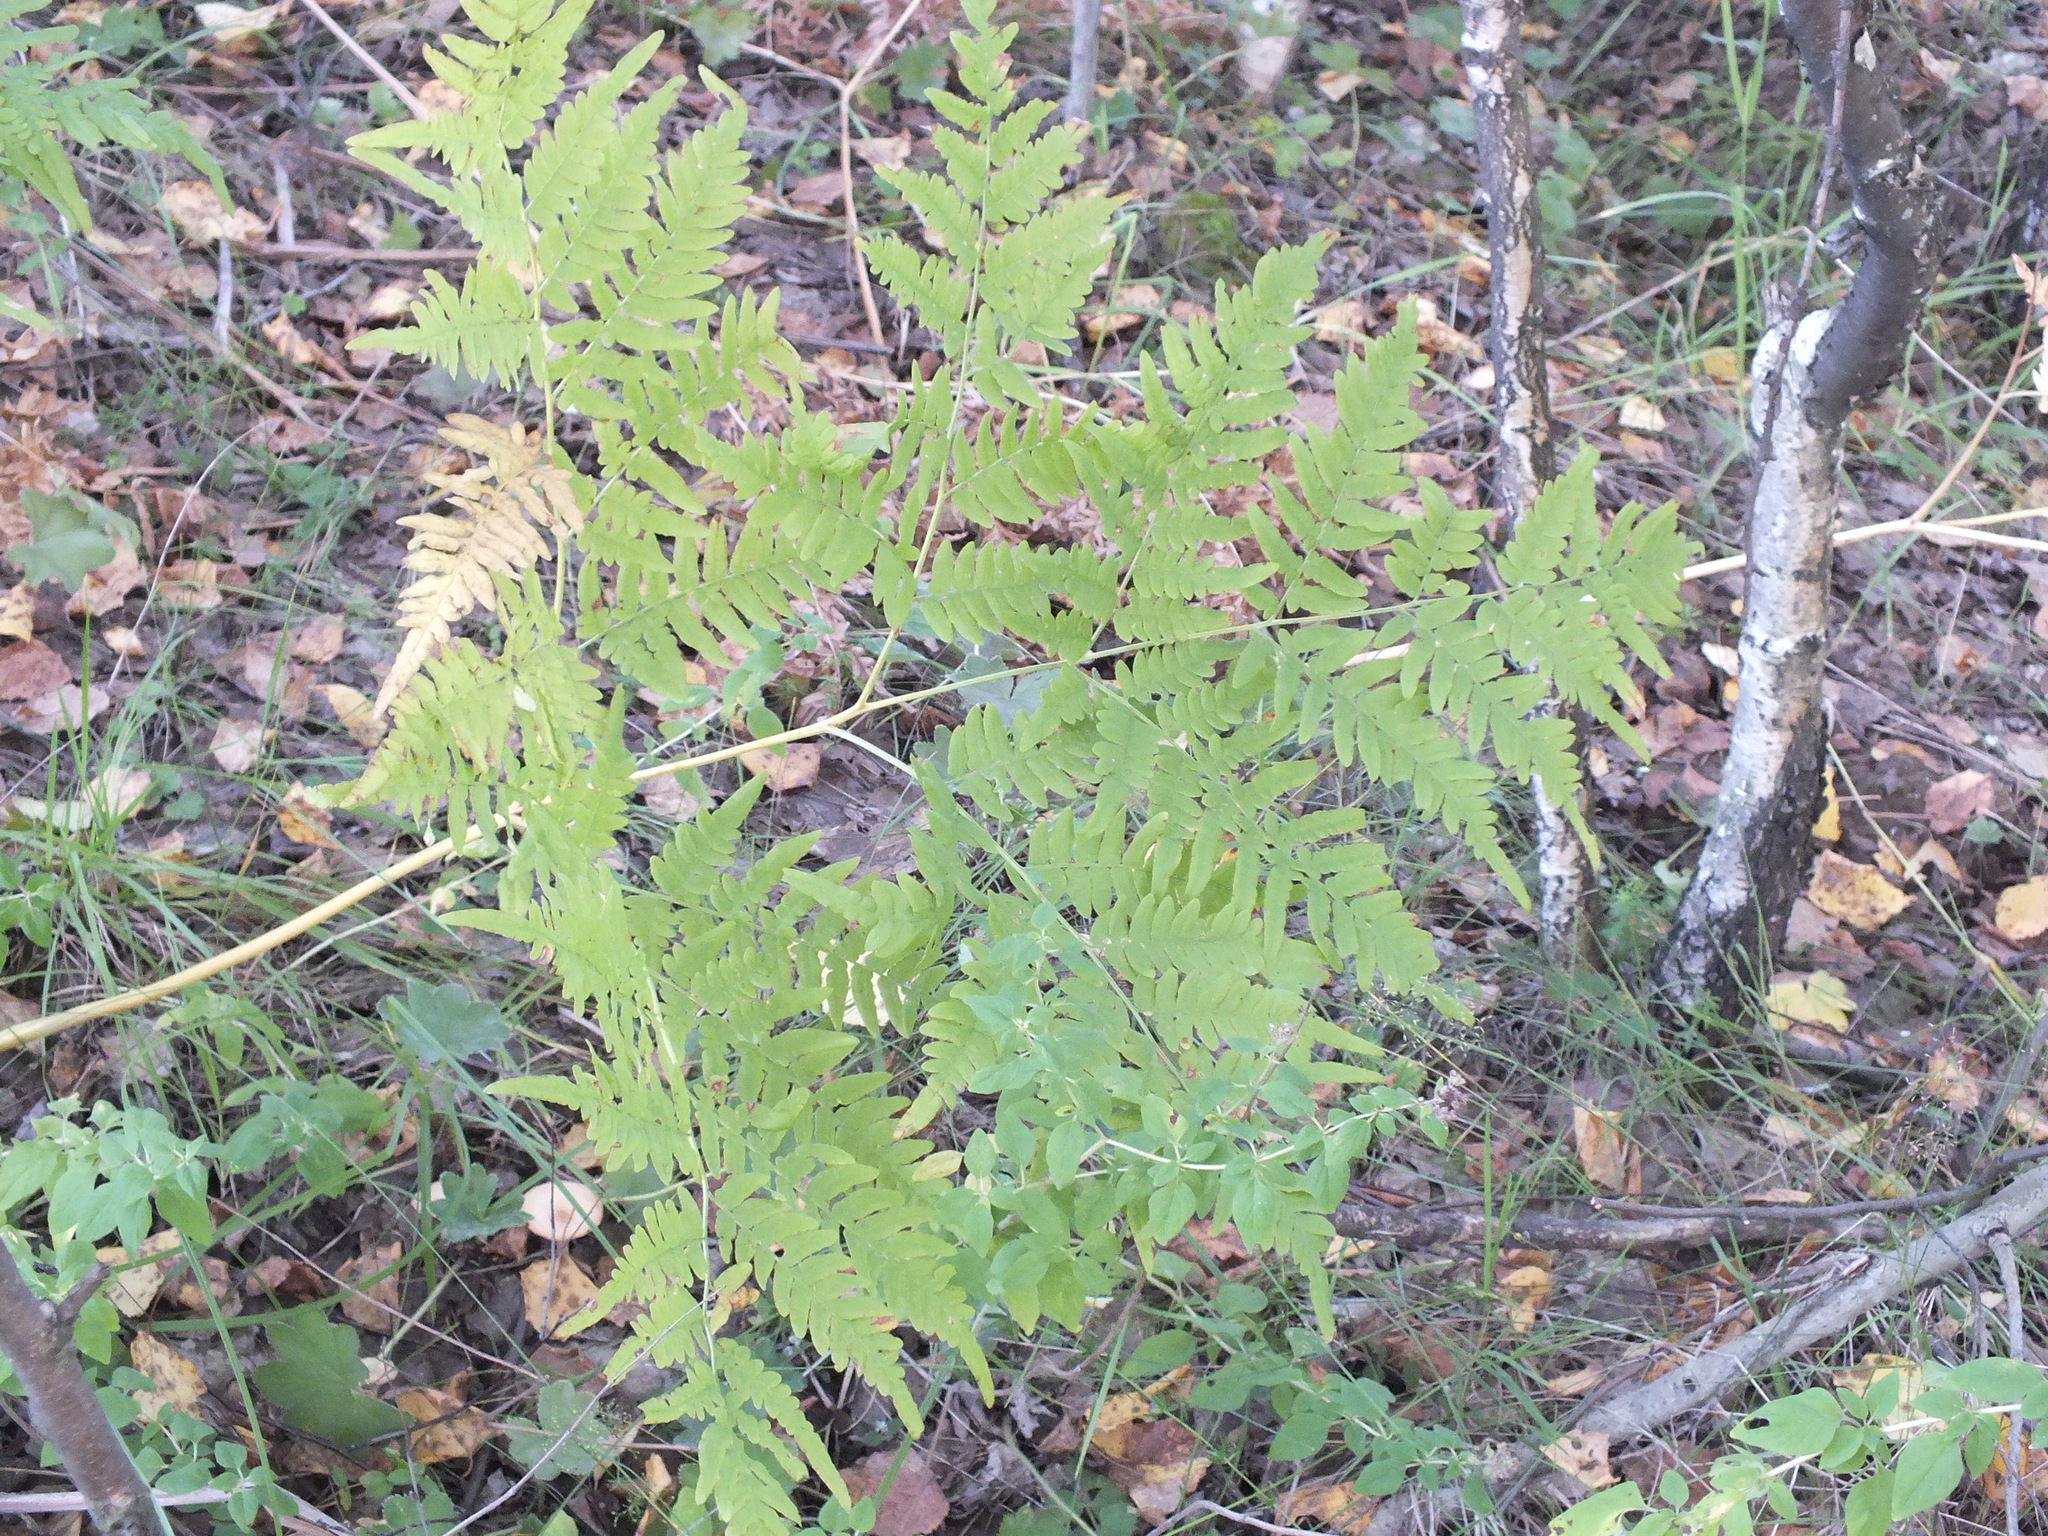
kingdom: Plantae
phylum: Tracheophyta
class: Polypodiopsida
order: Polypodiales
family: Dennstaedtiaceae
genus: Pteridium
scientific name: Pteridium aquilinum
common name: Bracken
